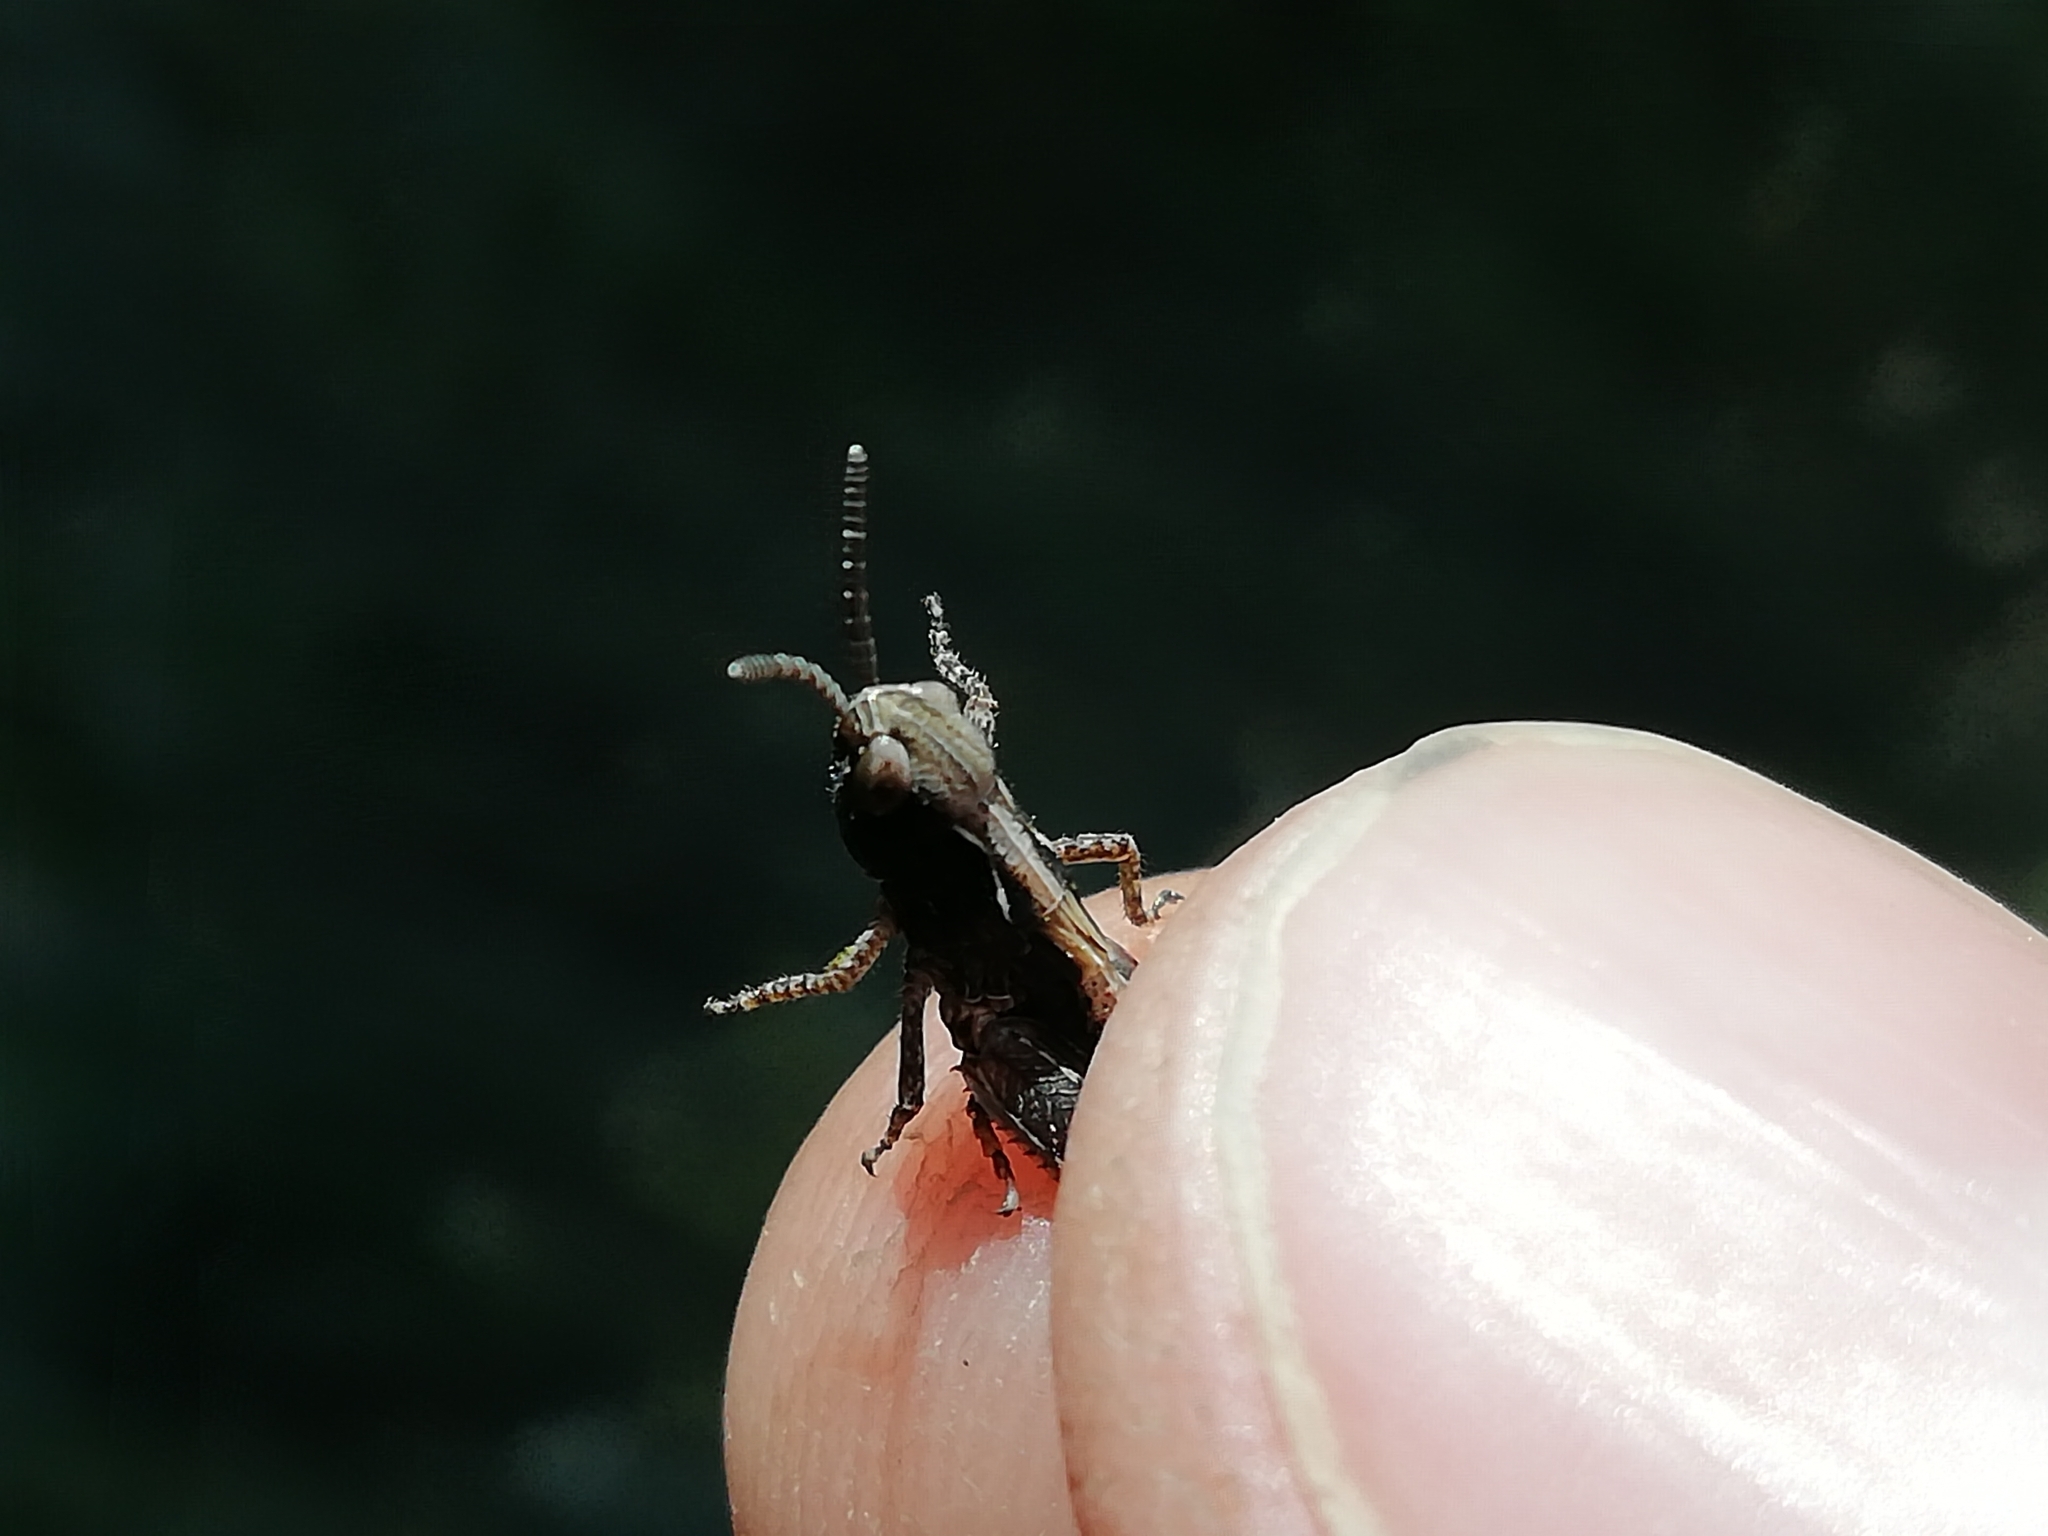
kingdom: Animalia
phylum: Arthropoda
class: Insecta
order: Orthoptera
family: Acrididae
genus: Myrmeleotettix
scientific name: Myrmeleotettix maculatus
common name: Mottled grasshopper
